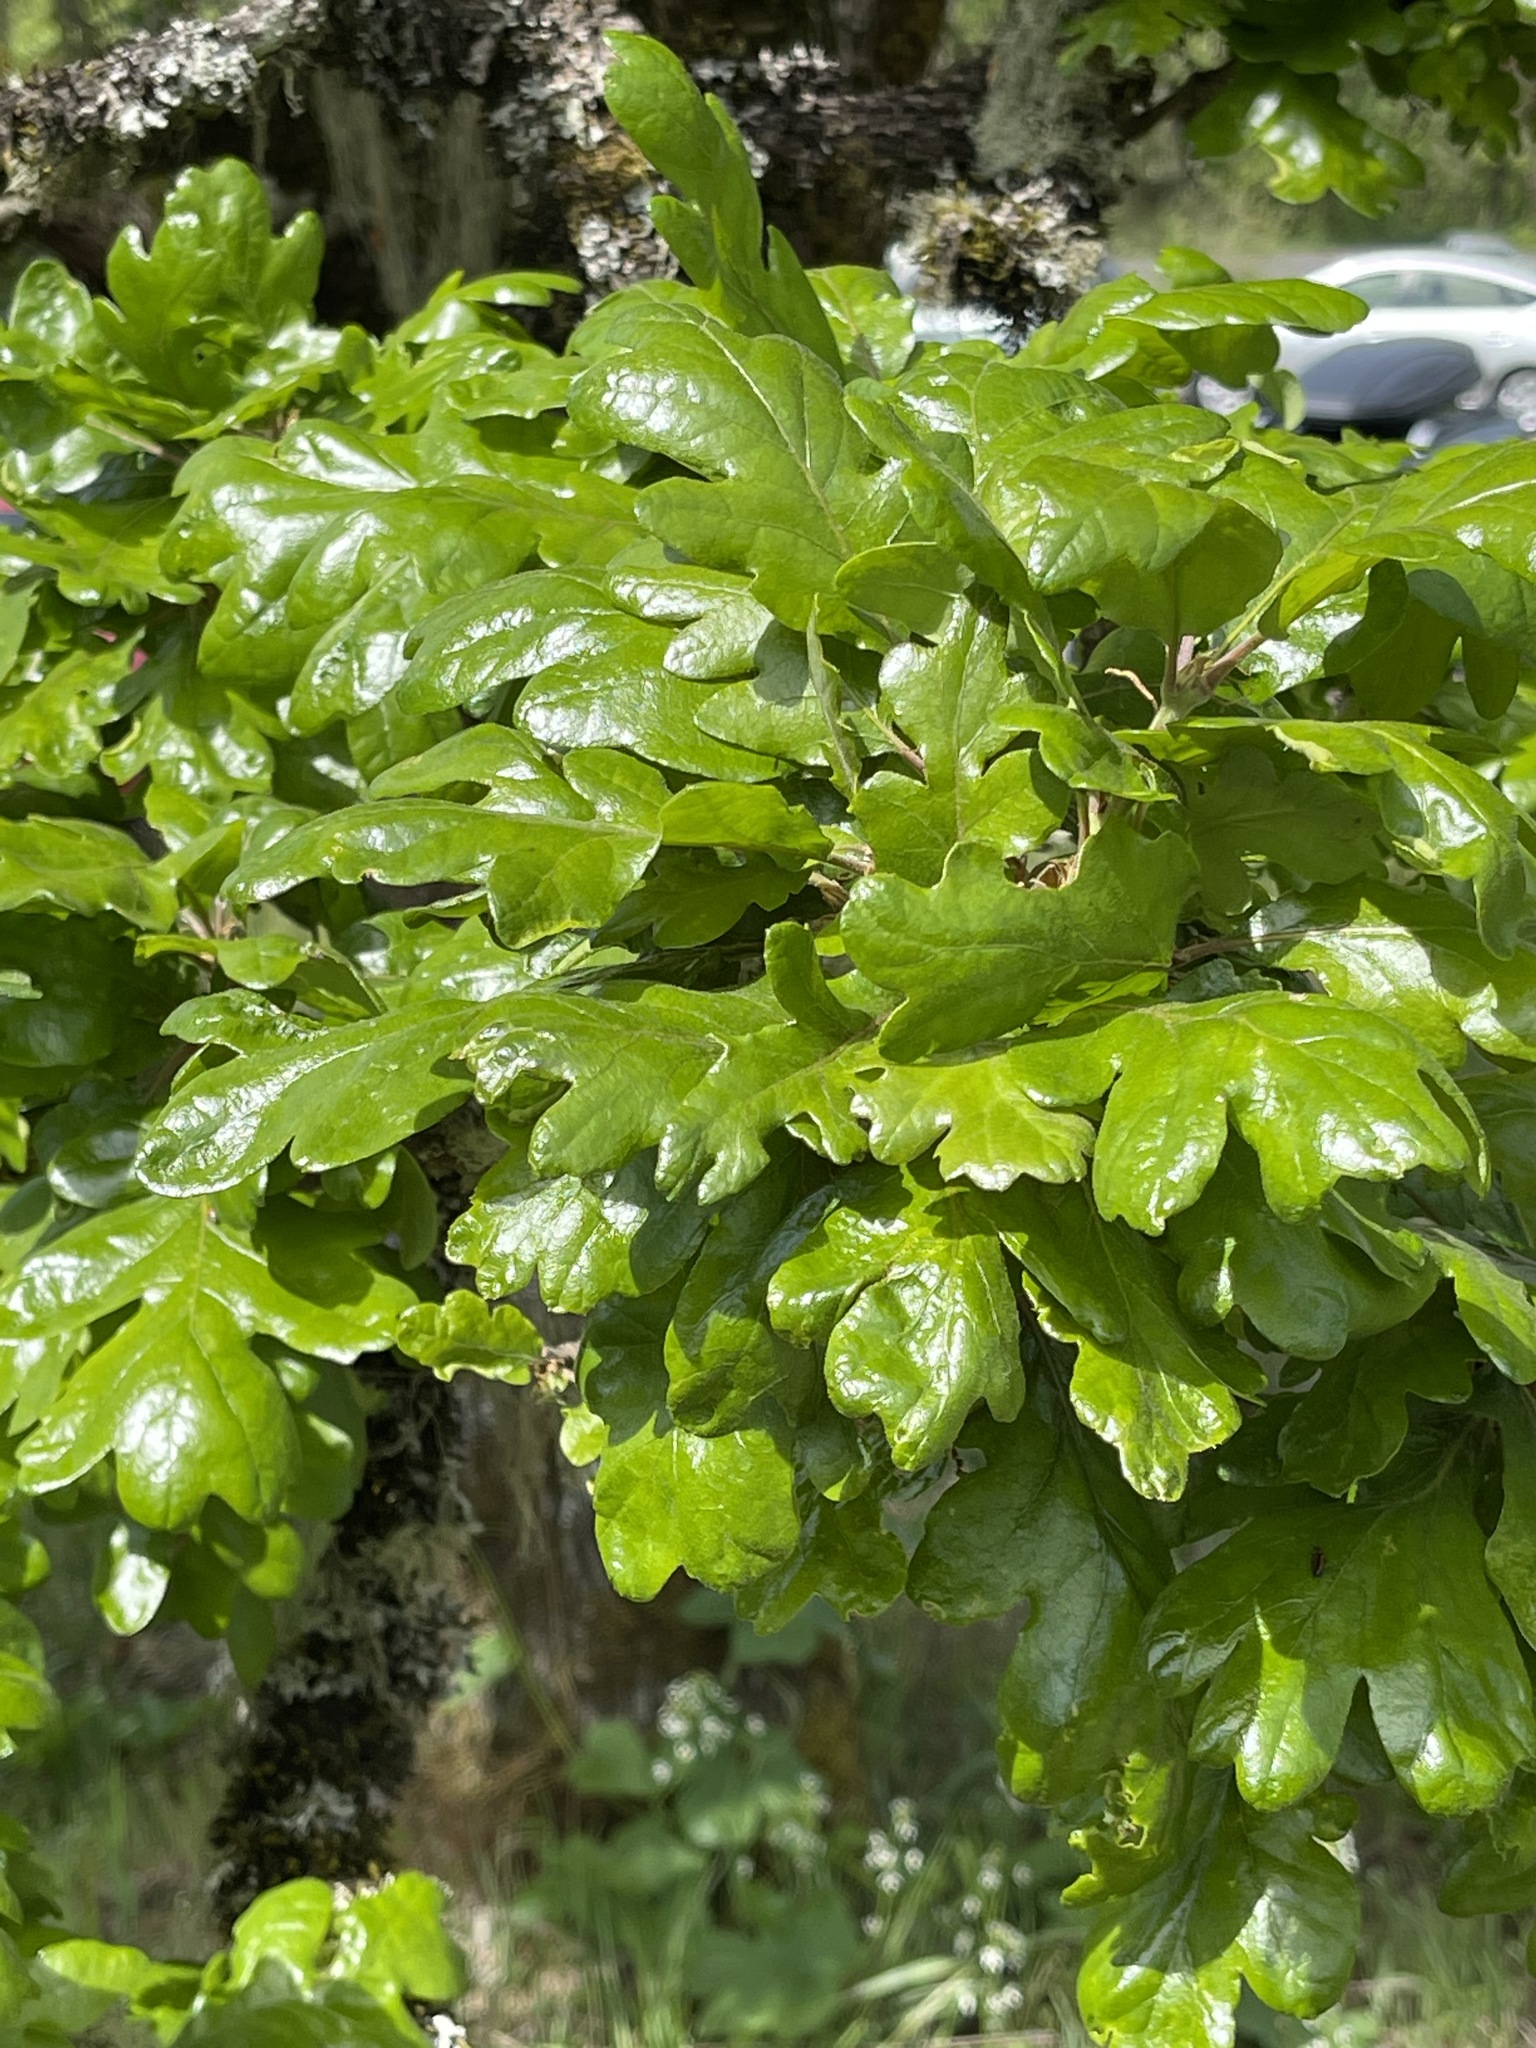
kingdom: Plantae
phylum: Tracheophyta
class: Magnoliopsida
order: Fagales
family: Fagaceae
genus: Quercus
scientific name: Quercus garryana
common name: Garry oak
